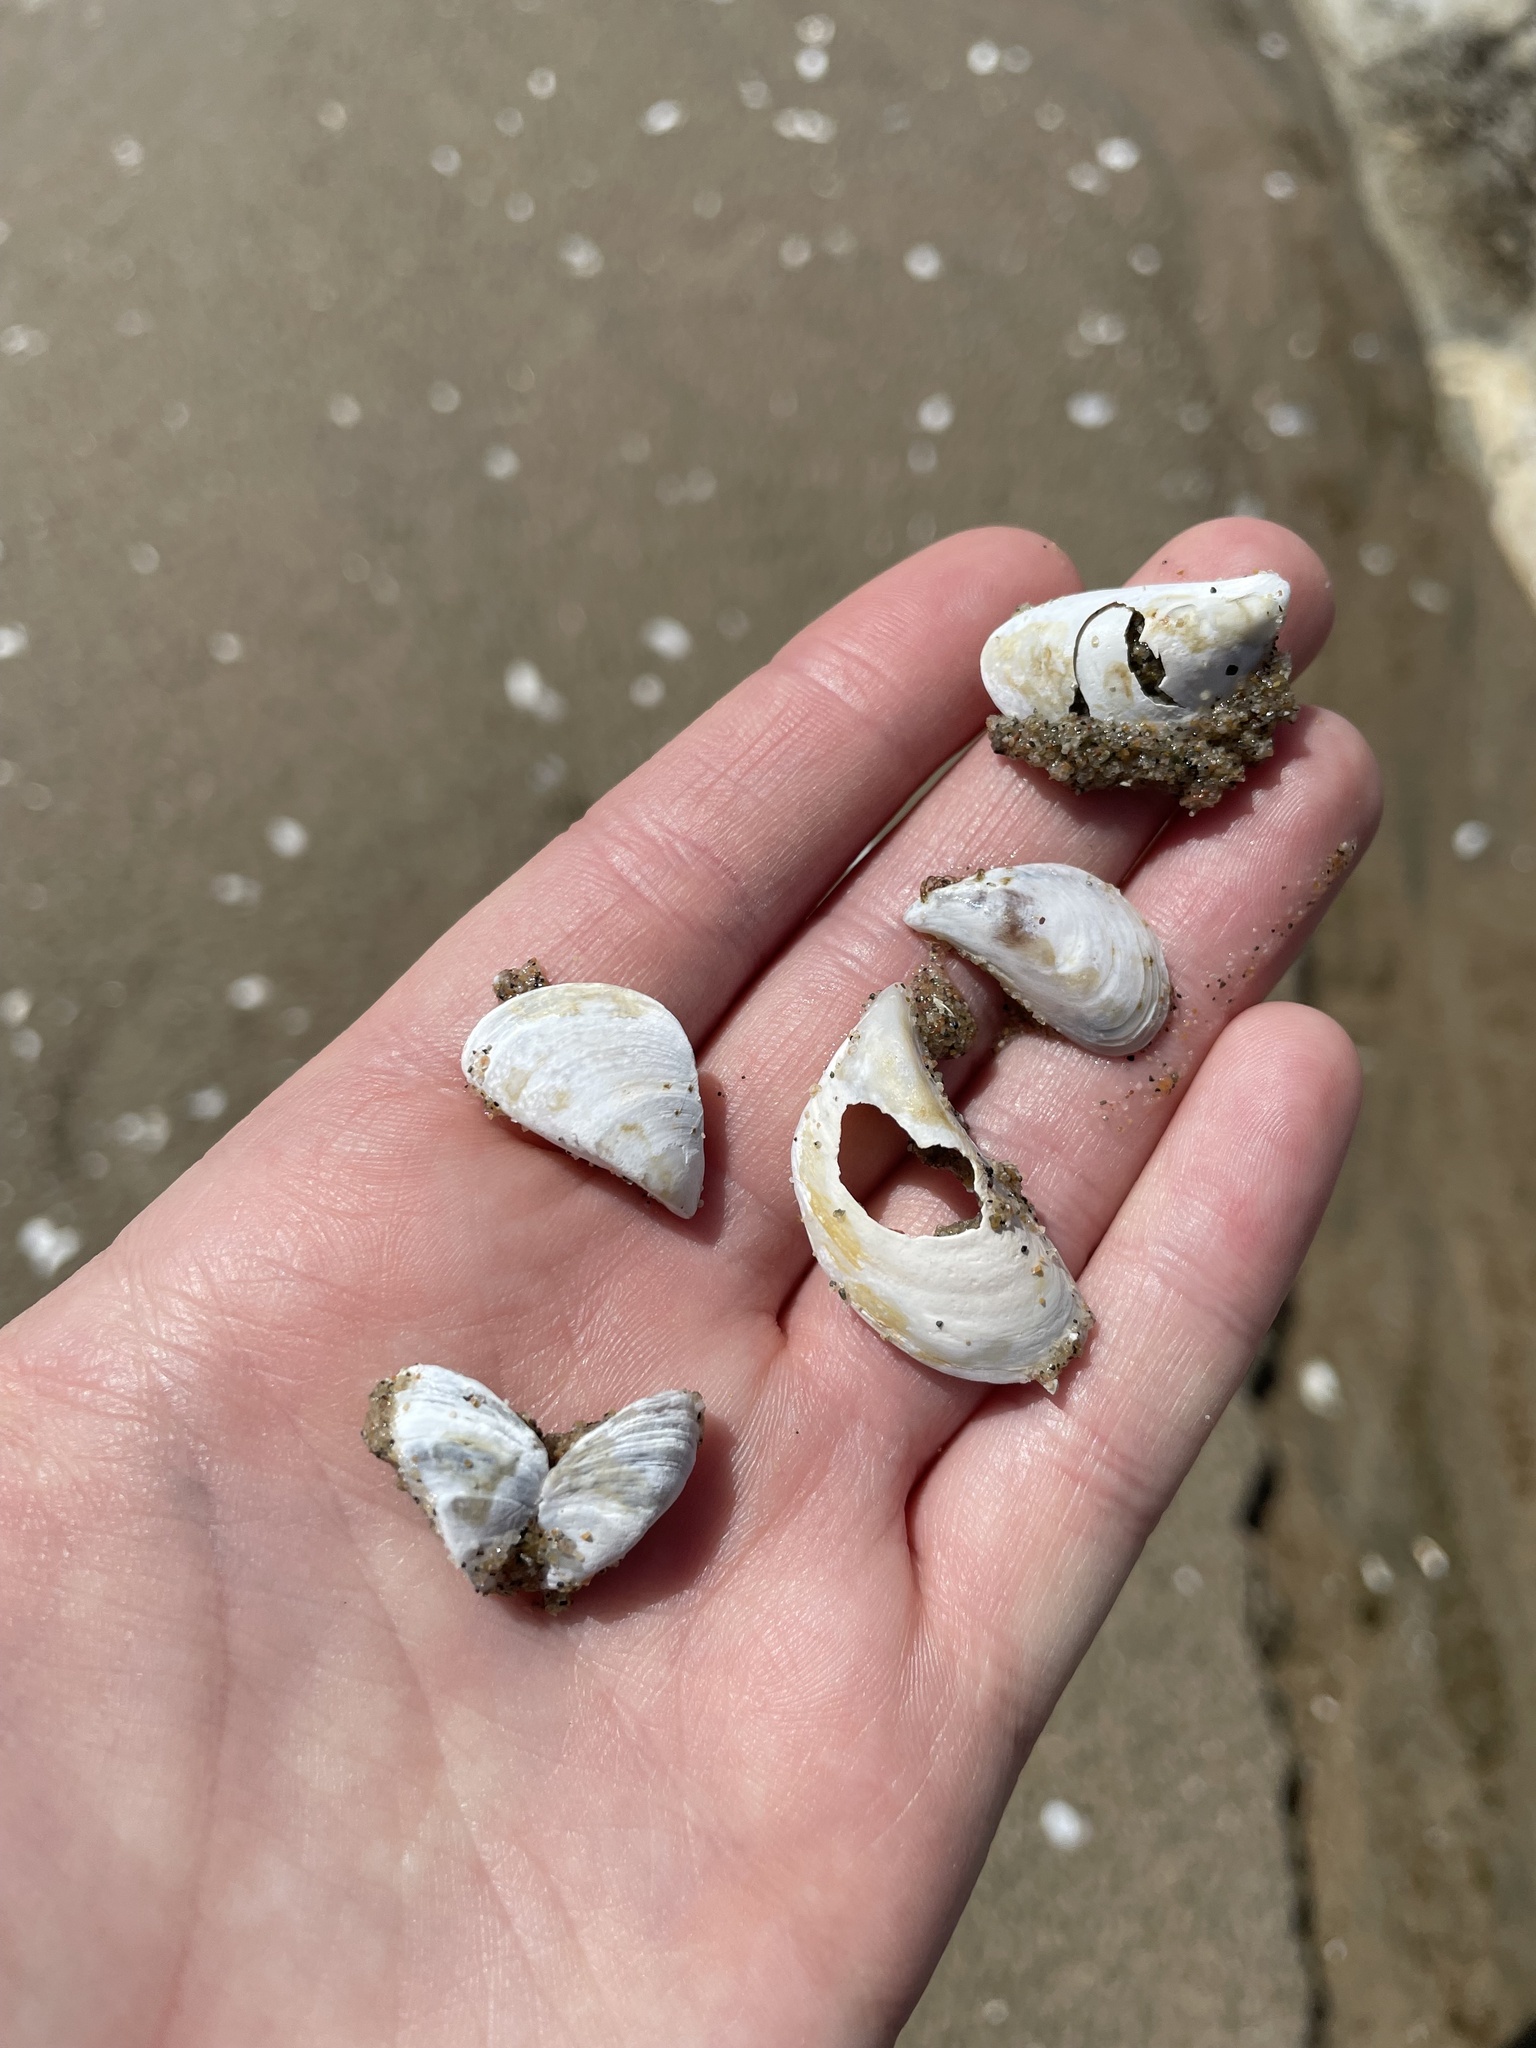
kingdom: Animalia
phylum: Mollusca
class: Bivalvia
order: Myida
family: Dreissenidae
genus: Dreissena
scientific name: Dreissena bugensis
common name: Quagga mussel
